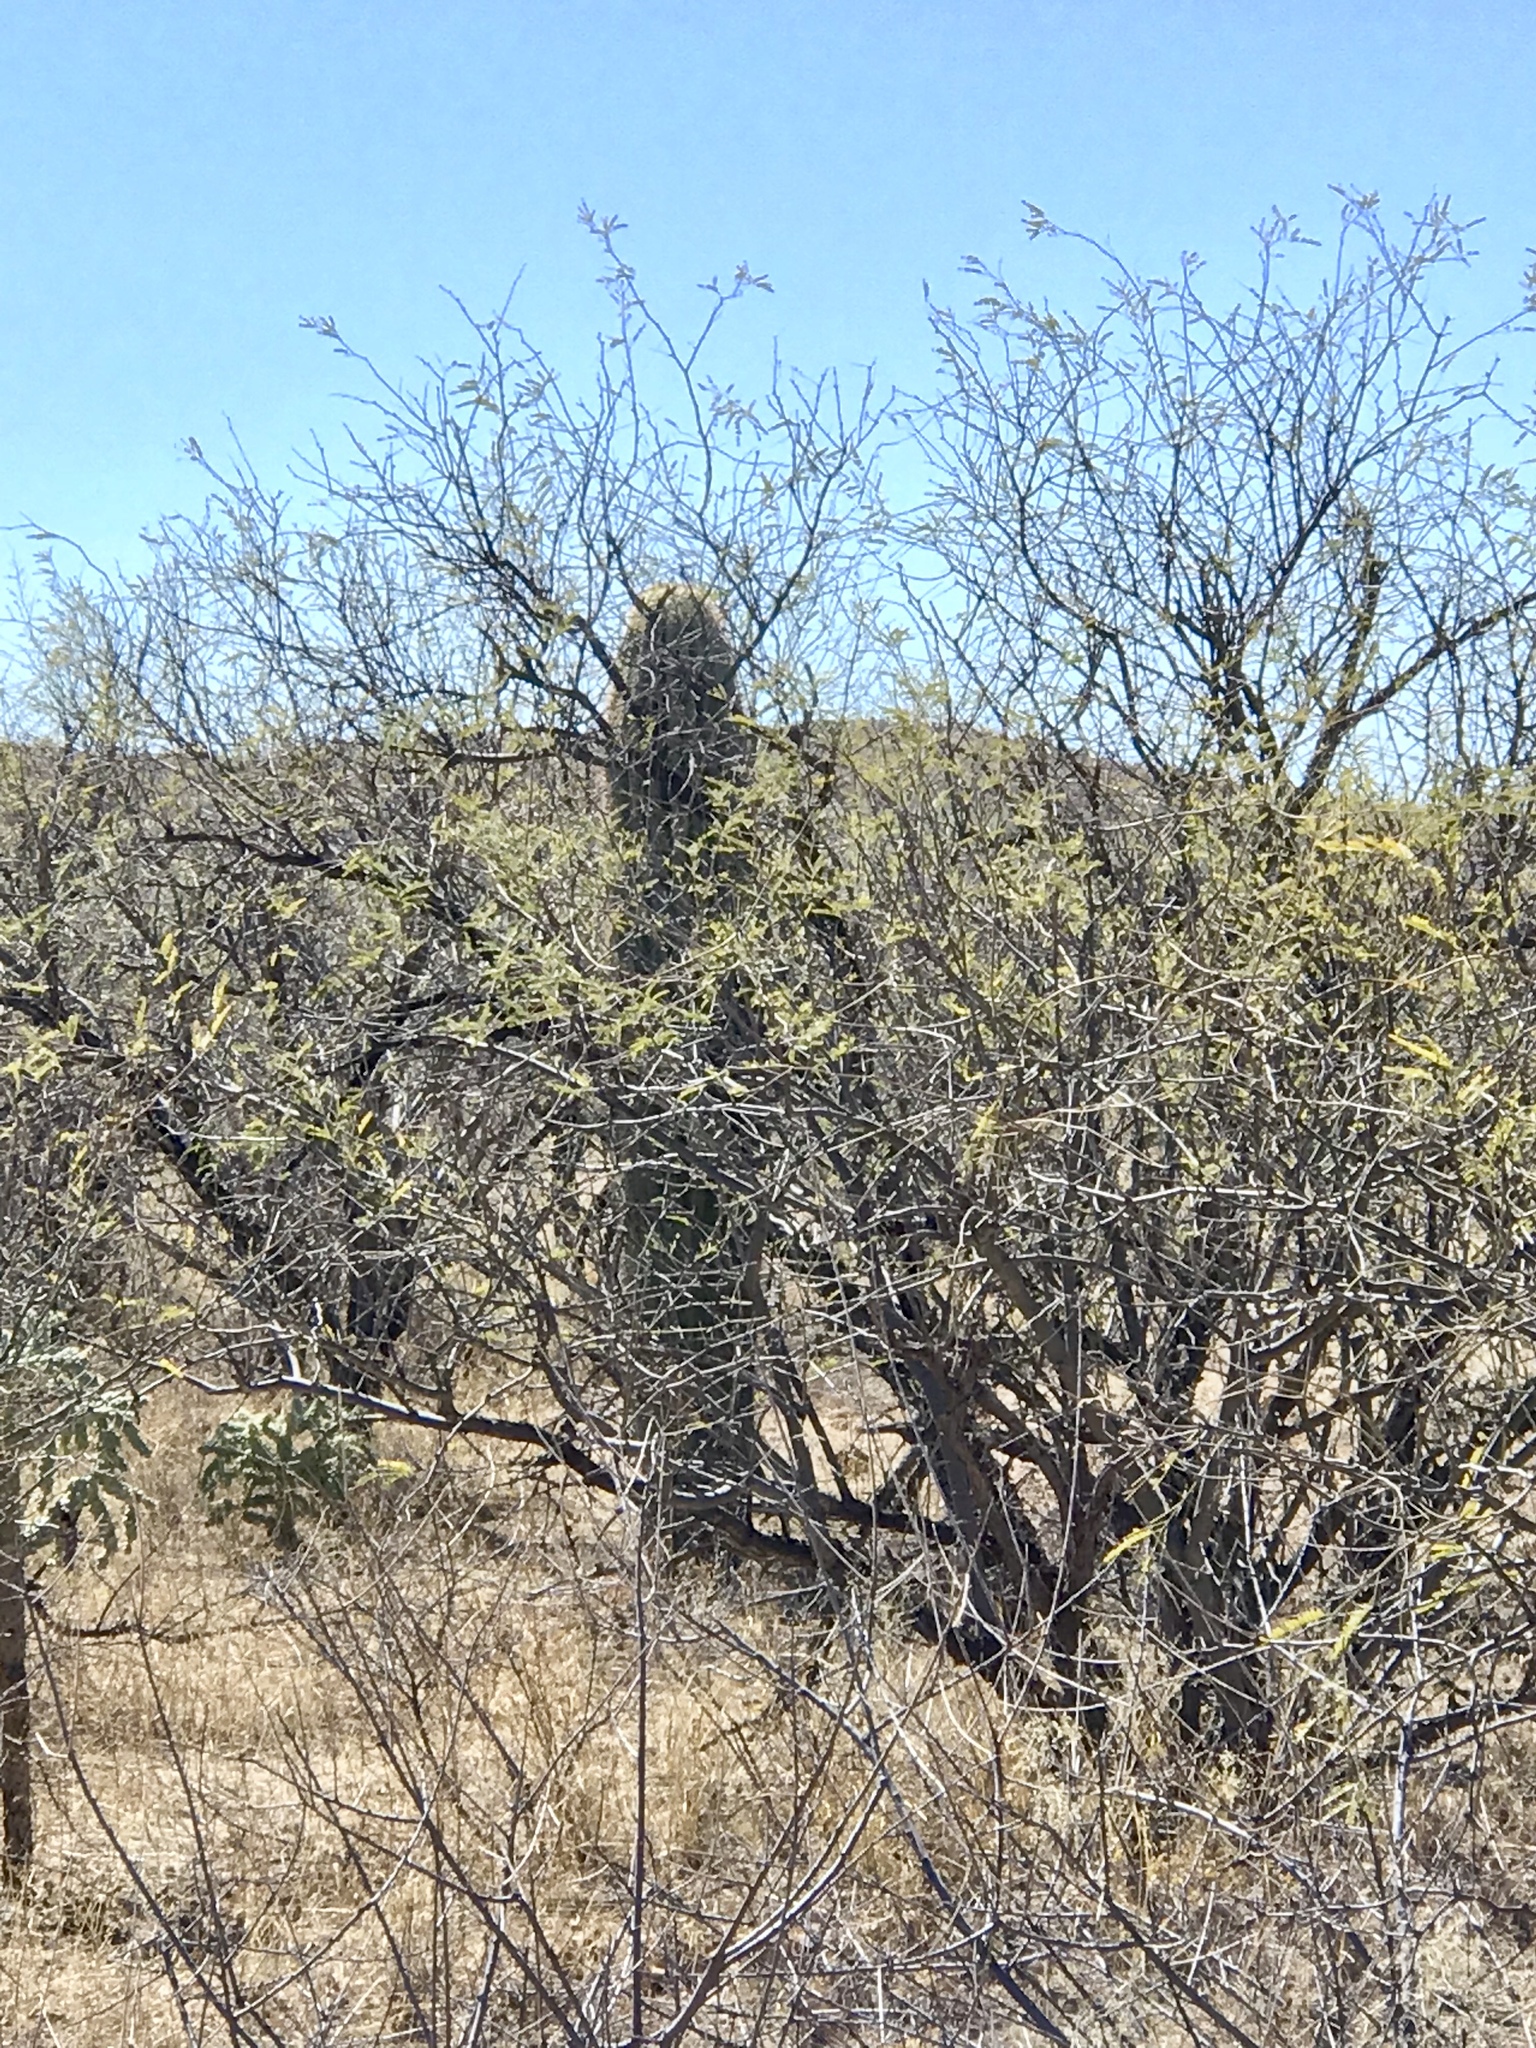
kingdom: Plantae
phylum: Tracheophyta
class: Magnoliopsida
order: Caryophyllales
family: Cactaceae
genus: Carnegiea
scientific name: Carnegiea gigantea
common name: Saguaro
